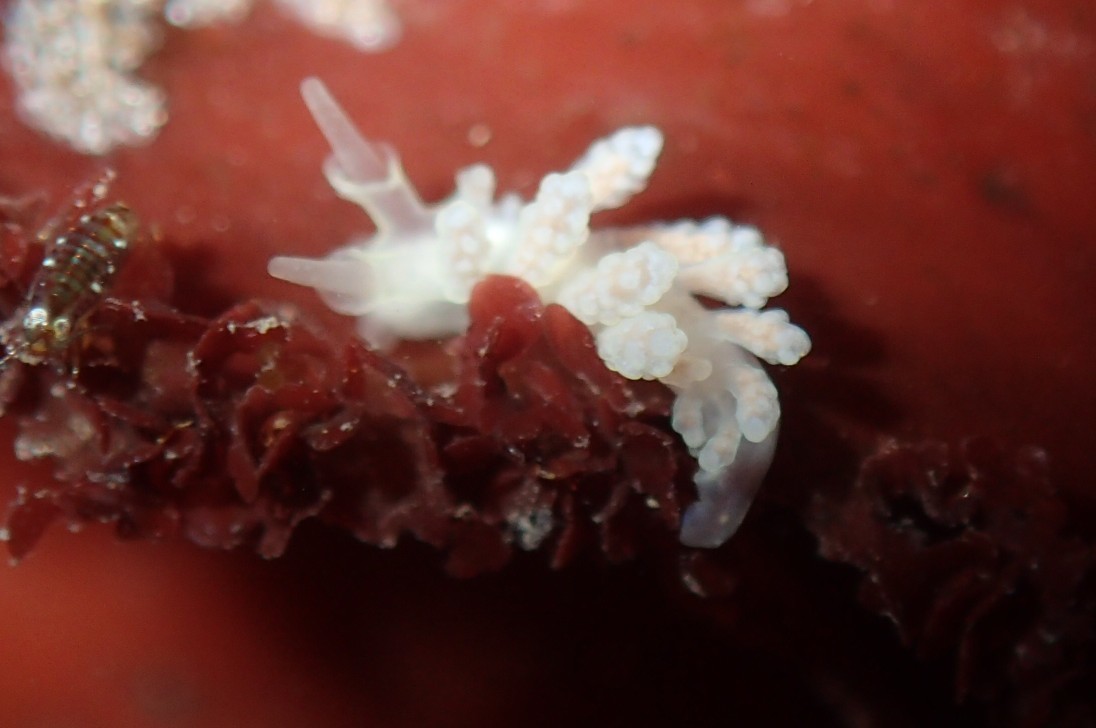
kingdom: Animalia
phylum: Mollusca
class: Gastropoda
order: Nudibranchia
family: Dotidae
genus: Doto
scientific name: Doto amyra
